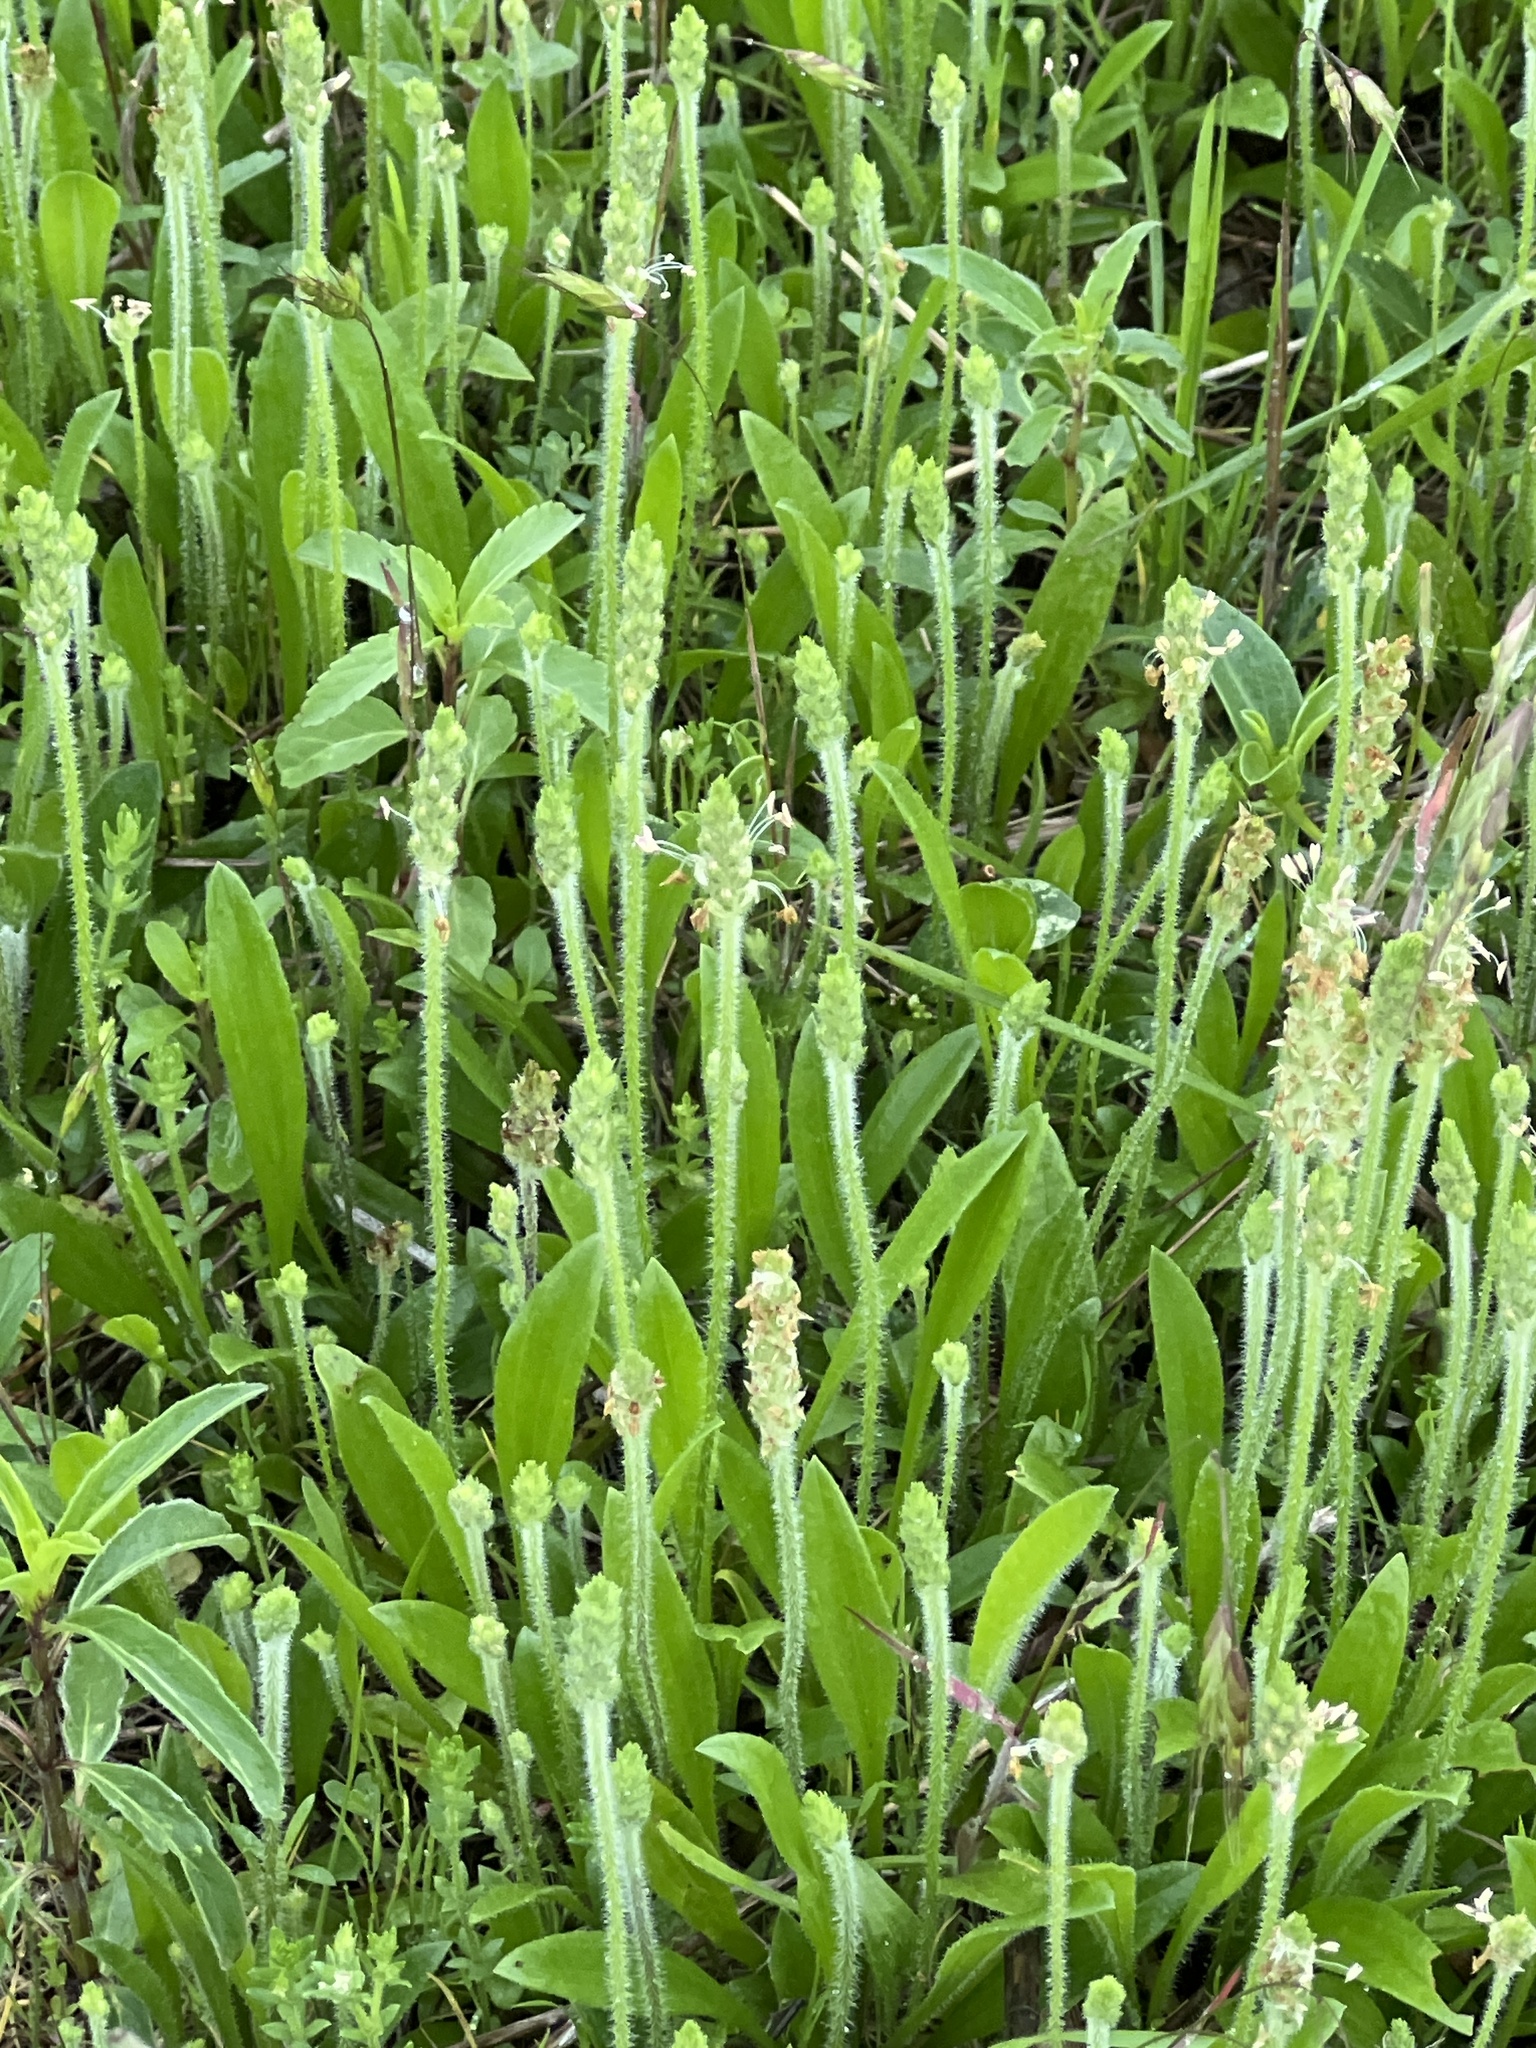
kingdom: Plantae
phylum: Tracheophyta
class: Magnoliopsida
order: Lamiales
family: Plantaginaceae
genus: Plantago
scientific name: Plantago rhodosperma
